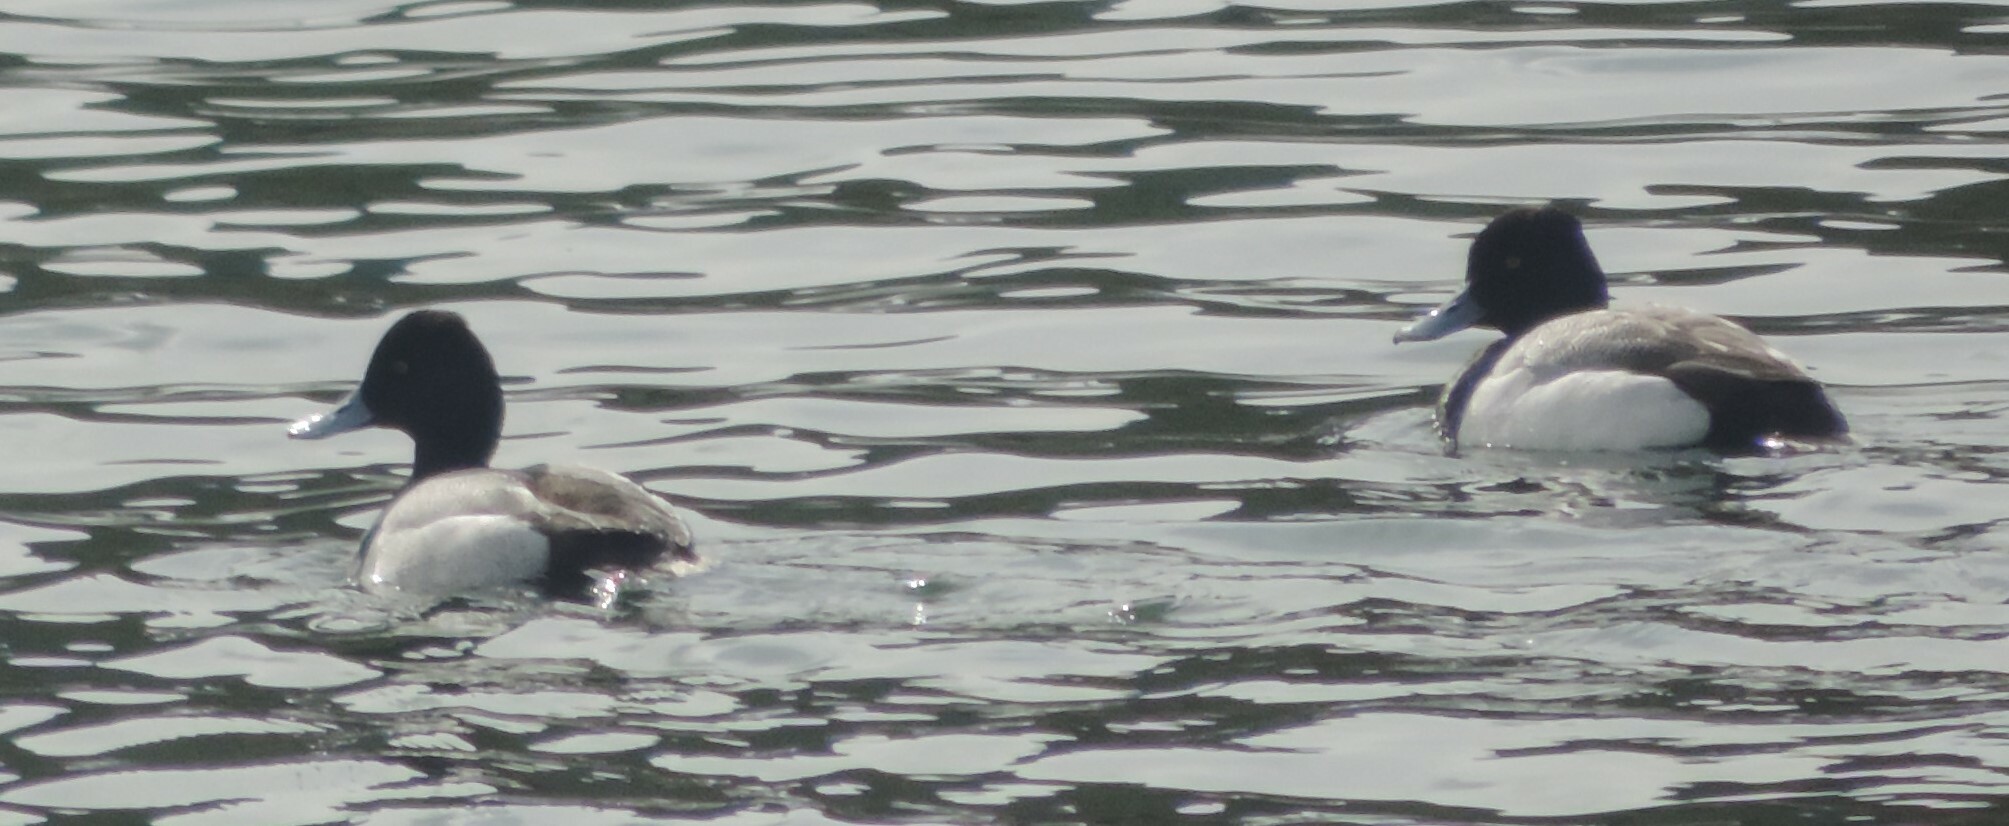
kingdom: Animalia
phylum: Chordata
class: Aves
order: Anseriformes
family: Anatidae
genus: Aythya
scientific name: Aythya affinis
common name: Lesser scaup
